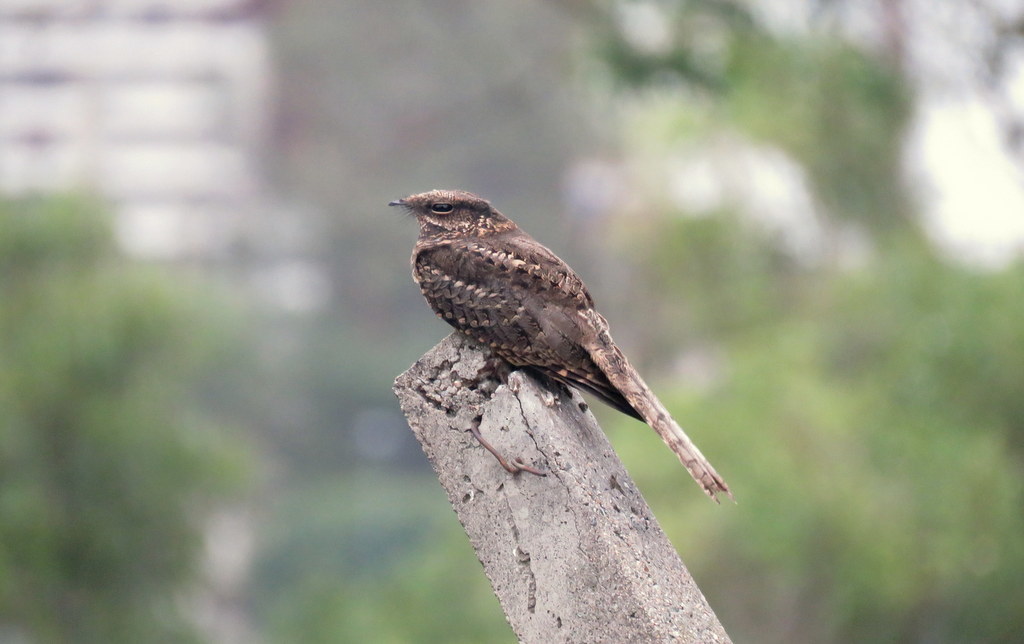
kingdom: Animalia
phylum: Chordata
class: Aves
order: Caprimulgiformes
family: Caprimulgidae
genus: Hydropsalis
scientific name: Hydropsalis torquata
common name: Scissor-tailed nightjar
